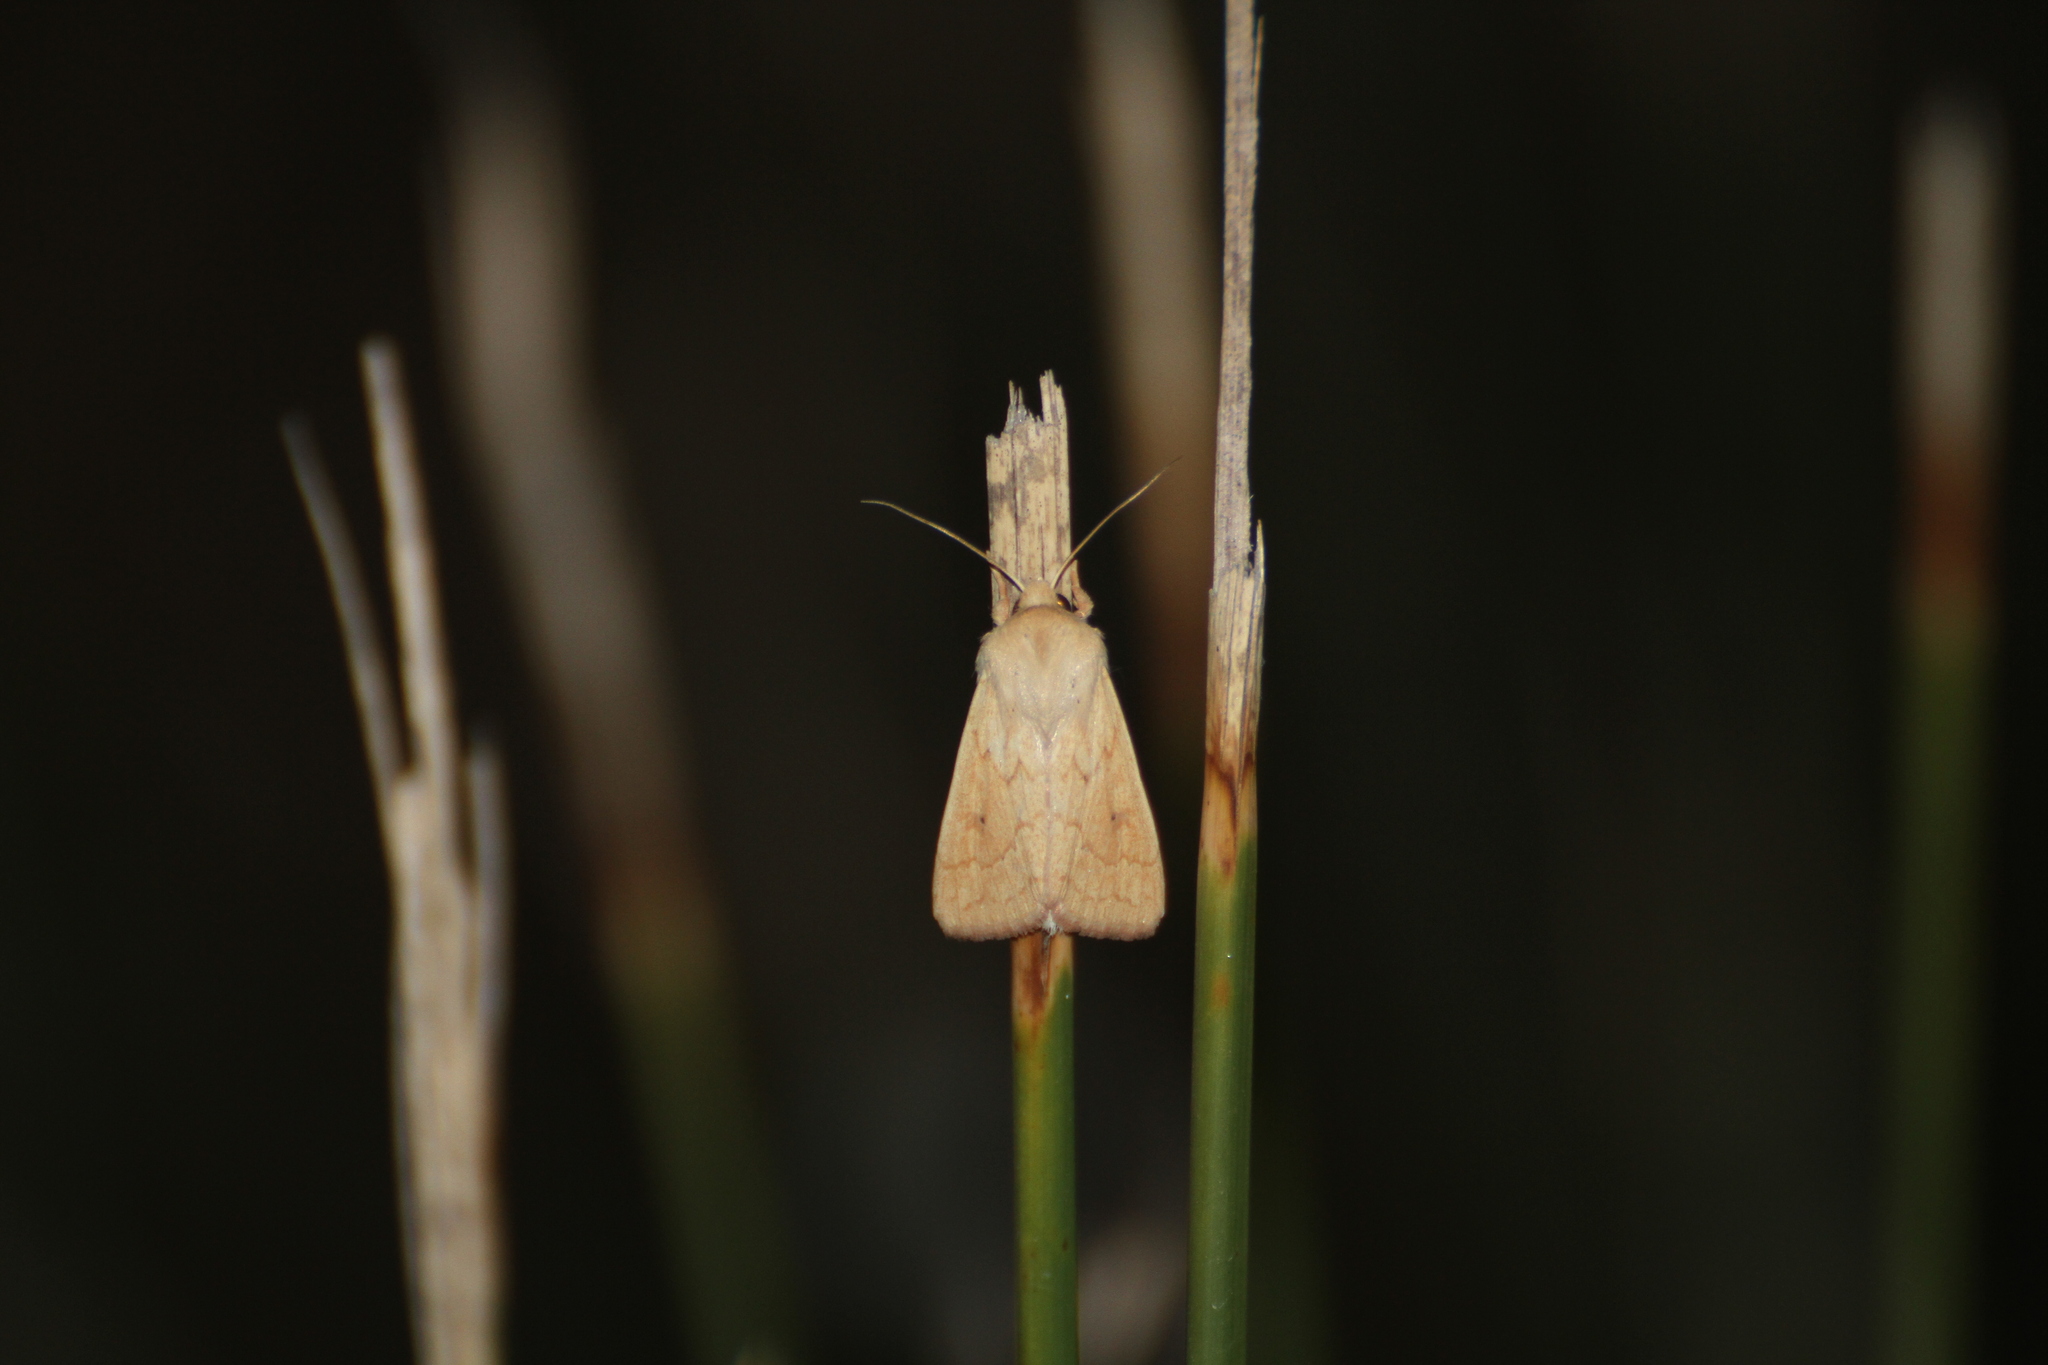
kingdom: Animalia
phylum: Arthropoda
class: Insecta
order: Lepidoptera
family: Noctuidae
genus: Mythimna
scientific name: Mythimna vitellina
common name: Delicate
